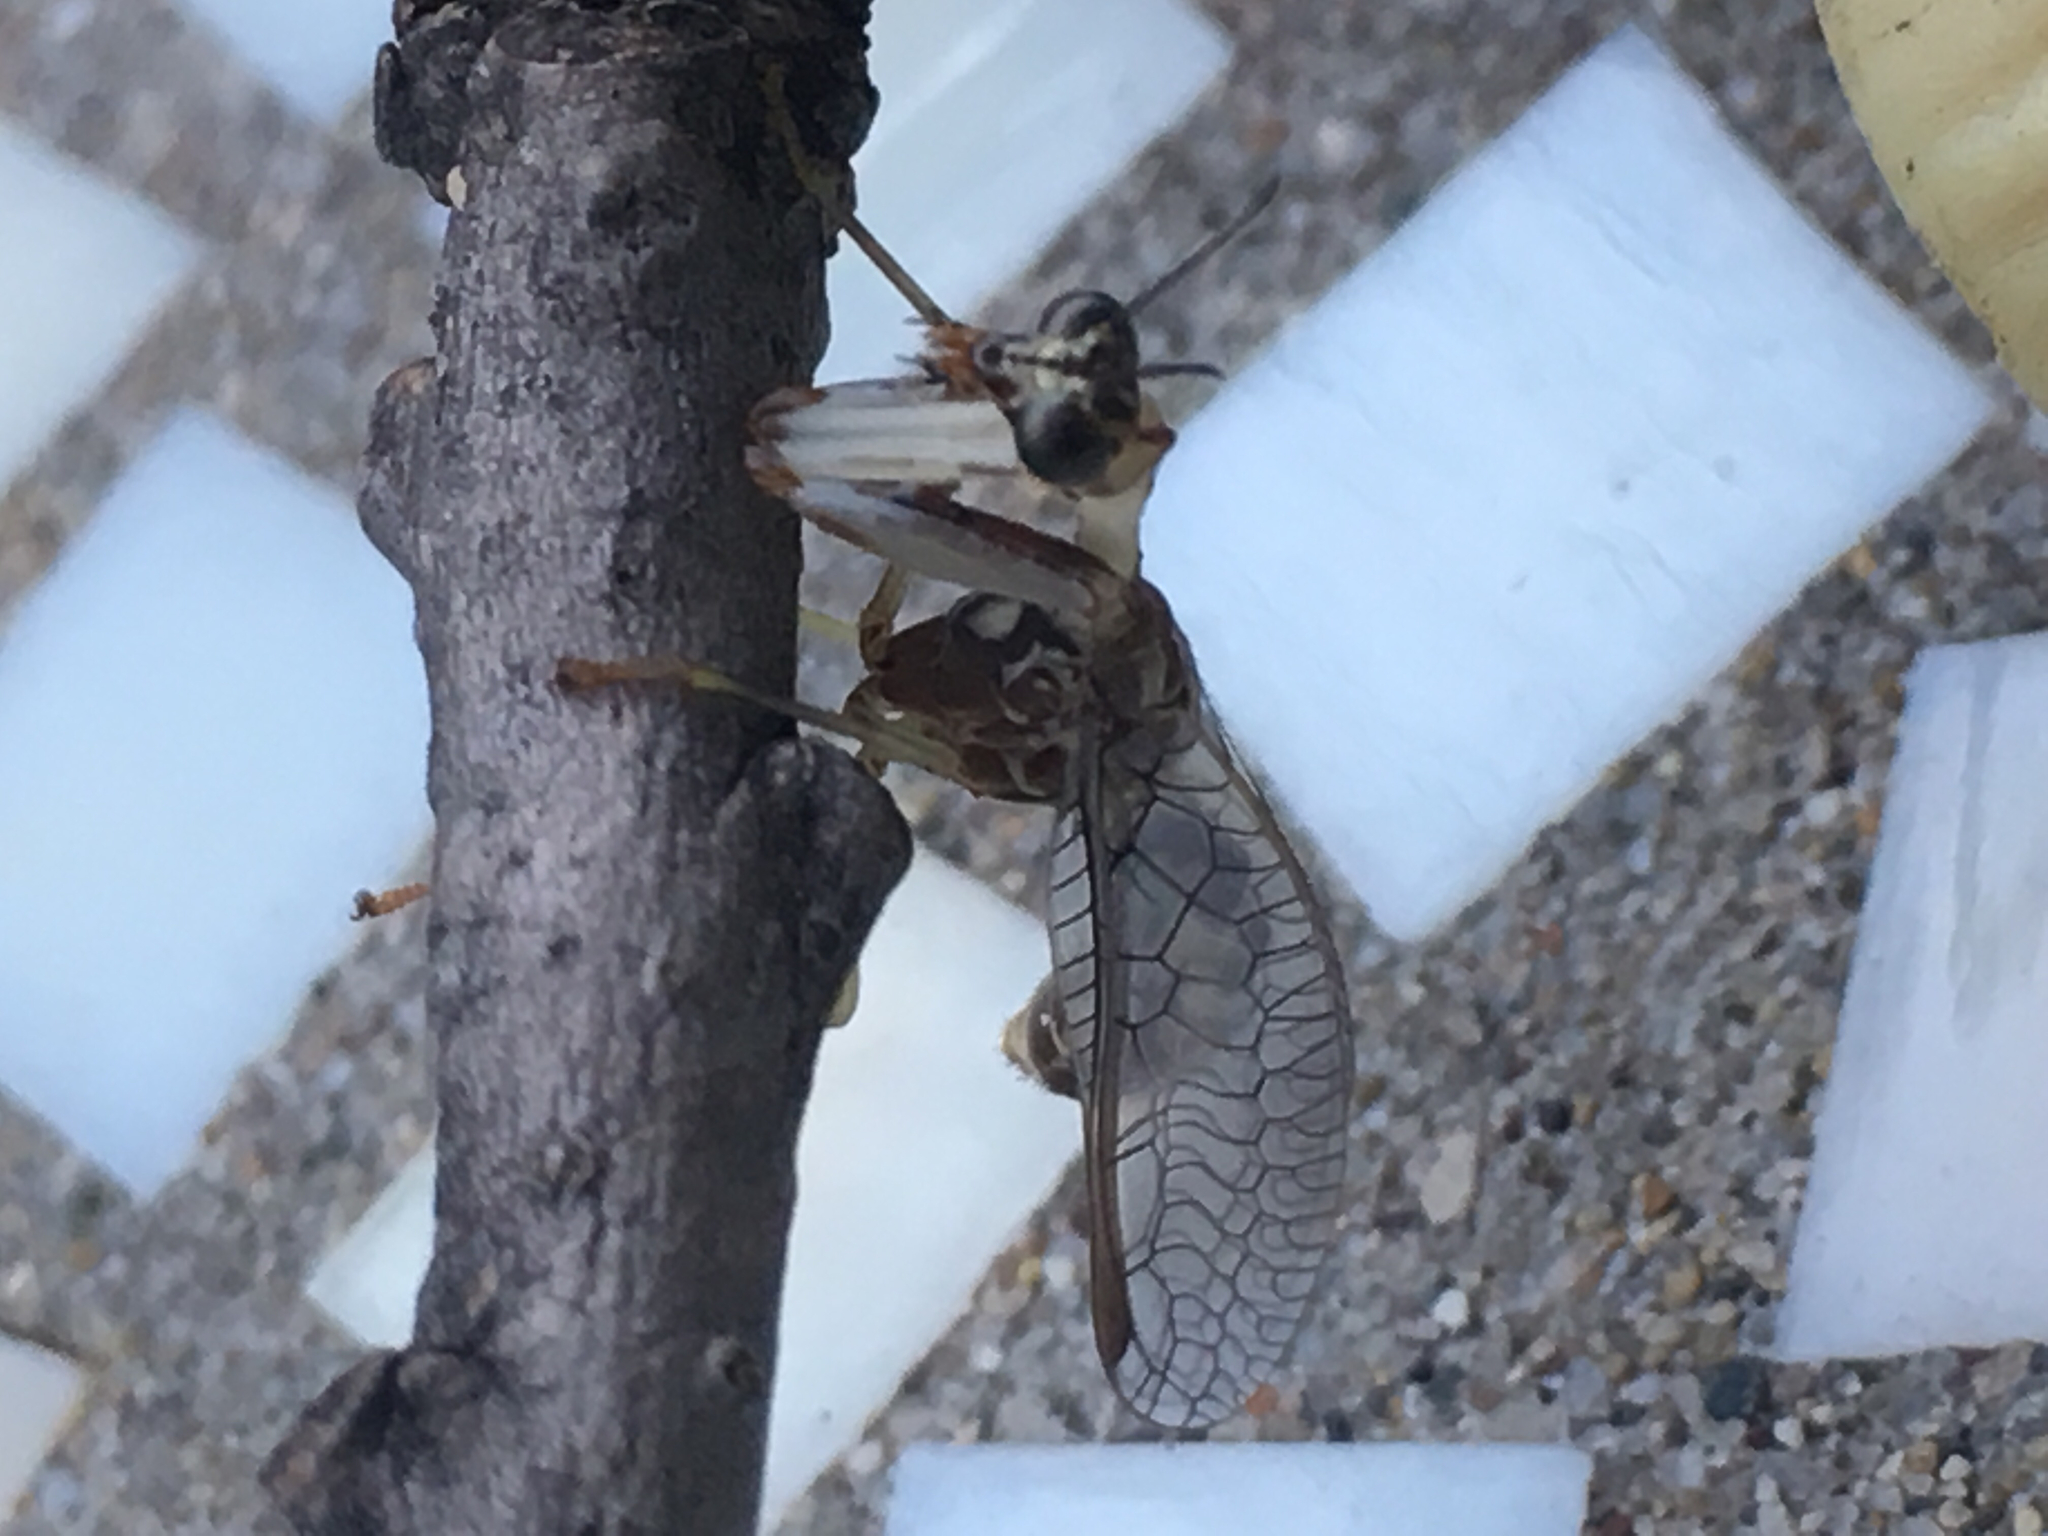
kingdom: Animalia
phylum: Arthropoda
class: Insecta
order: Neuroptera
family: Mantispidae
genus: Dicromantispa
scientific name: Dicromantispa sayi
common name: Say's mantidfly
